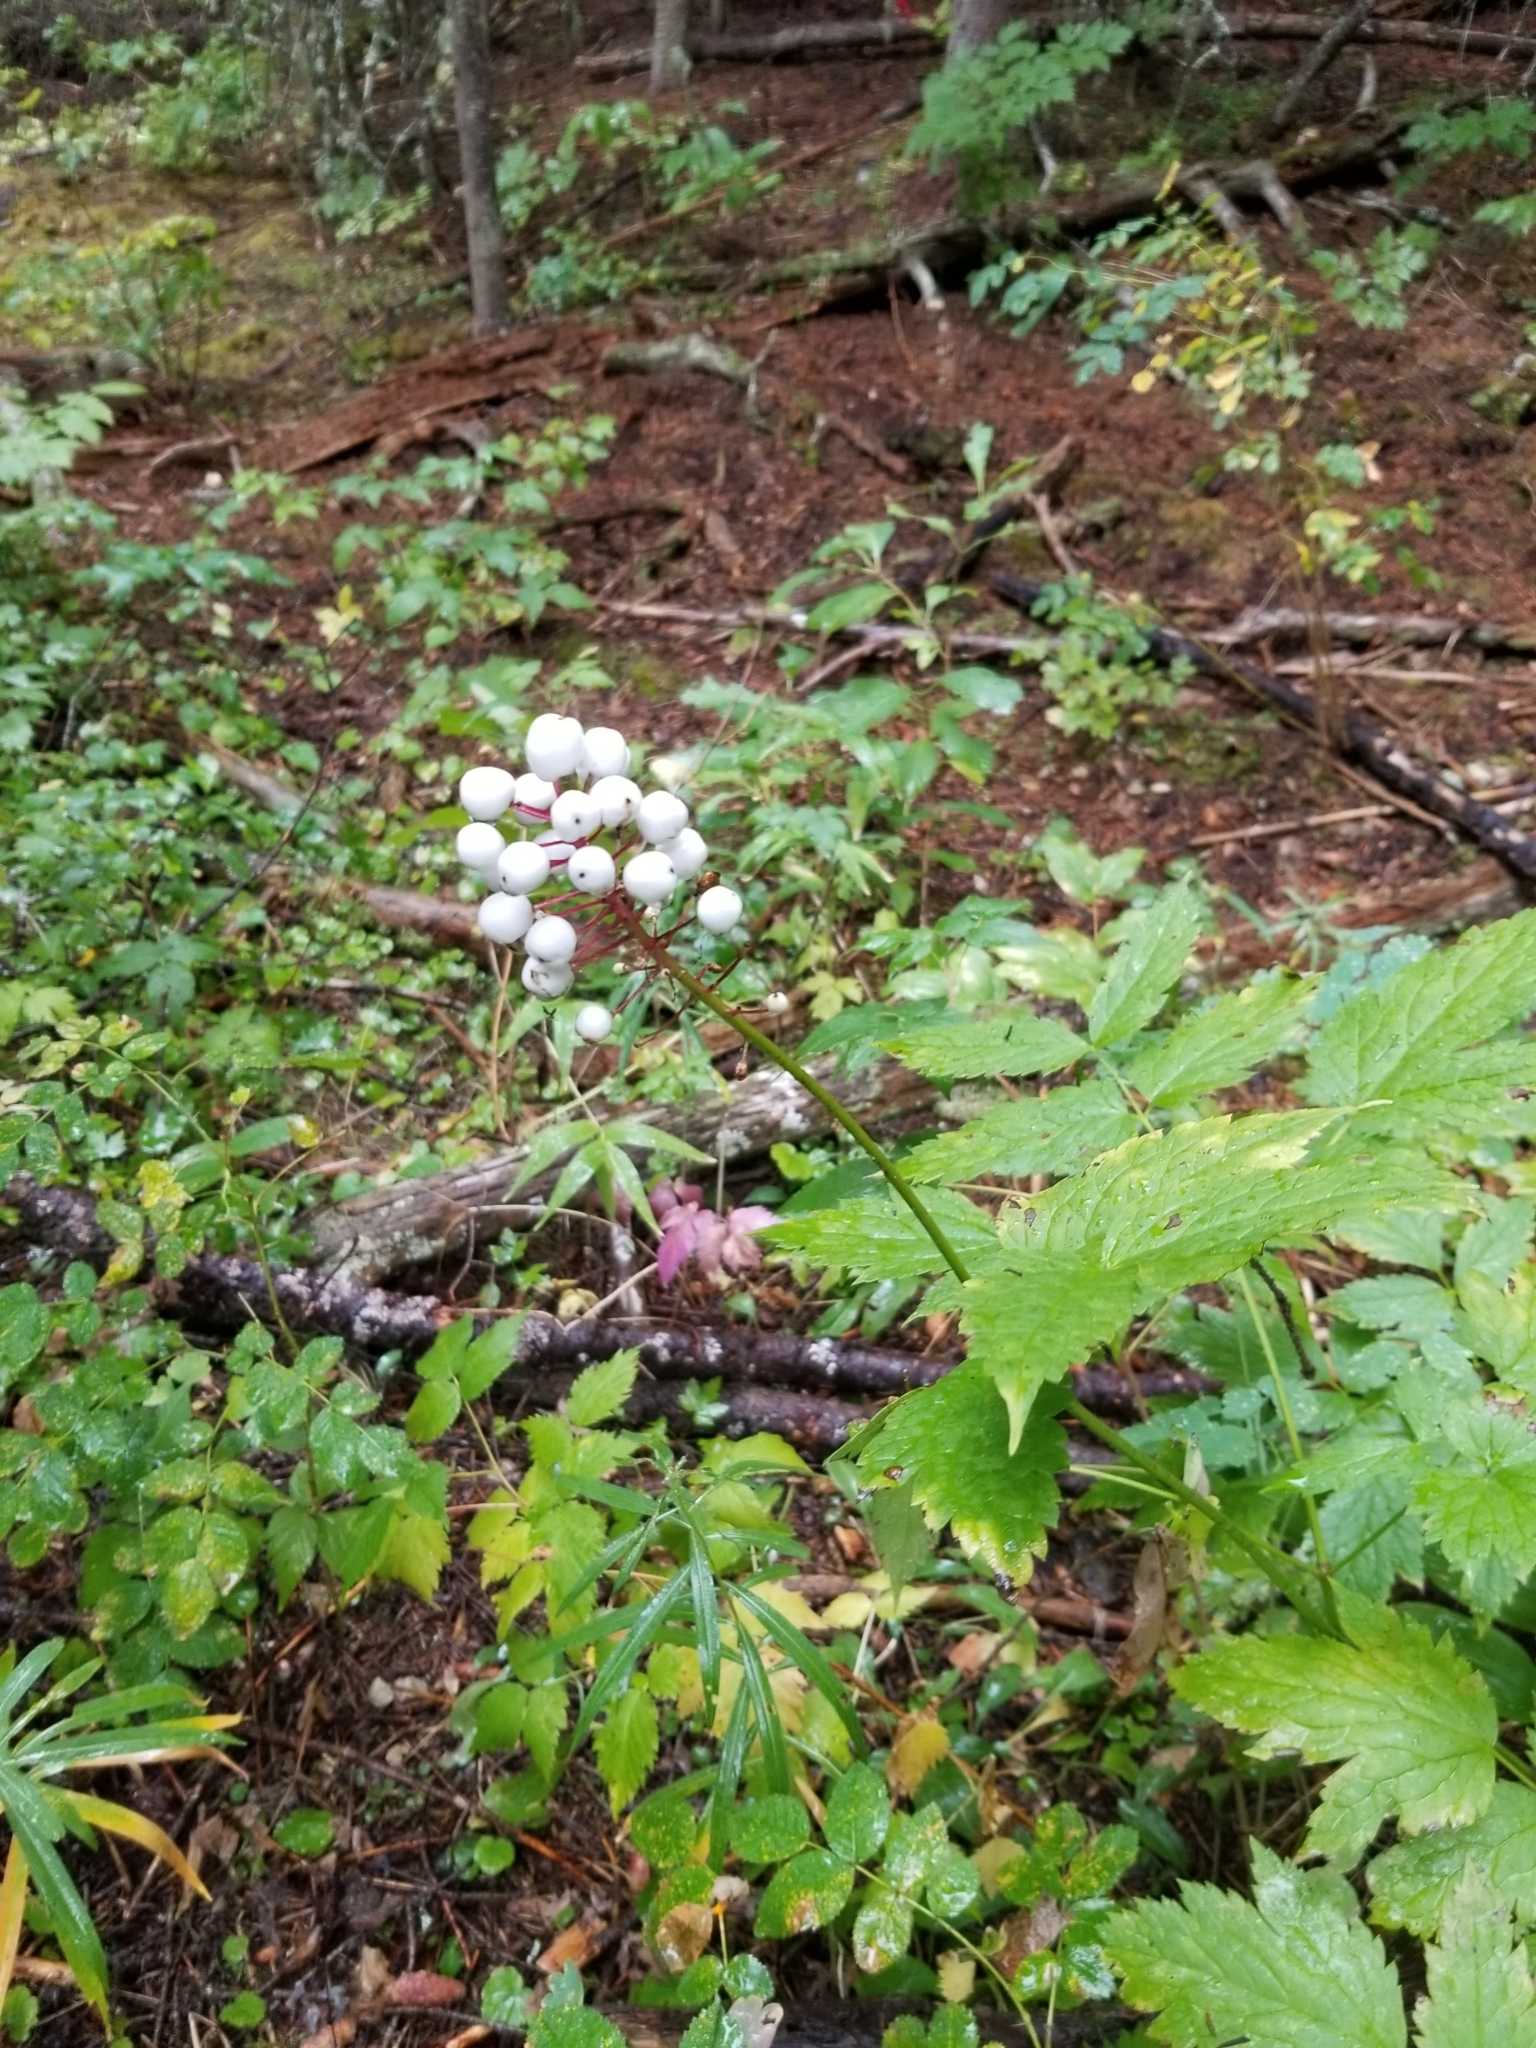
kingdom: Plantae
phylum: Tracheophyta
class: Magnoliopsida
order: Ranunculales
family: Ranunculaceae
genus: Actaea
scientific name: Actaea rubra
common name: Red baneberry
